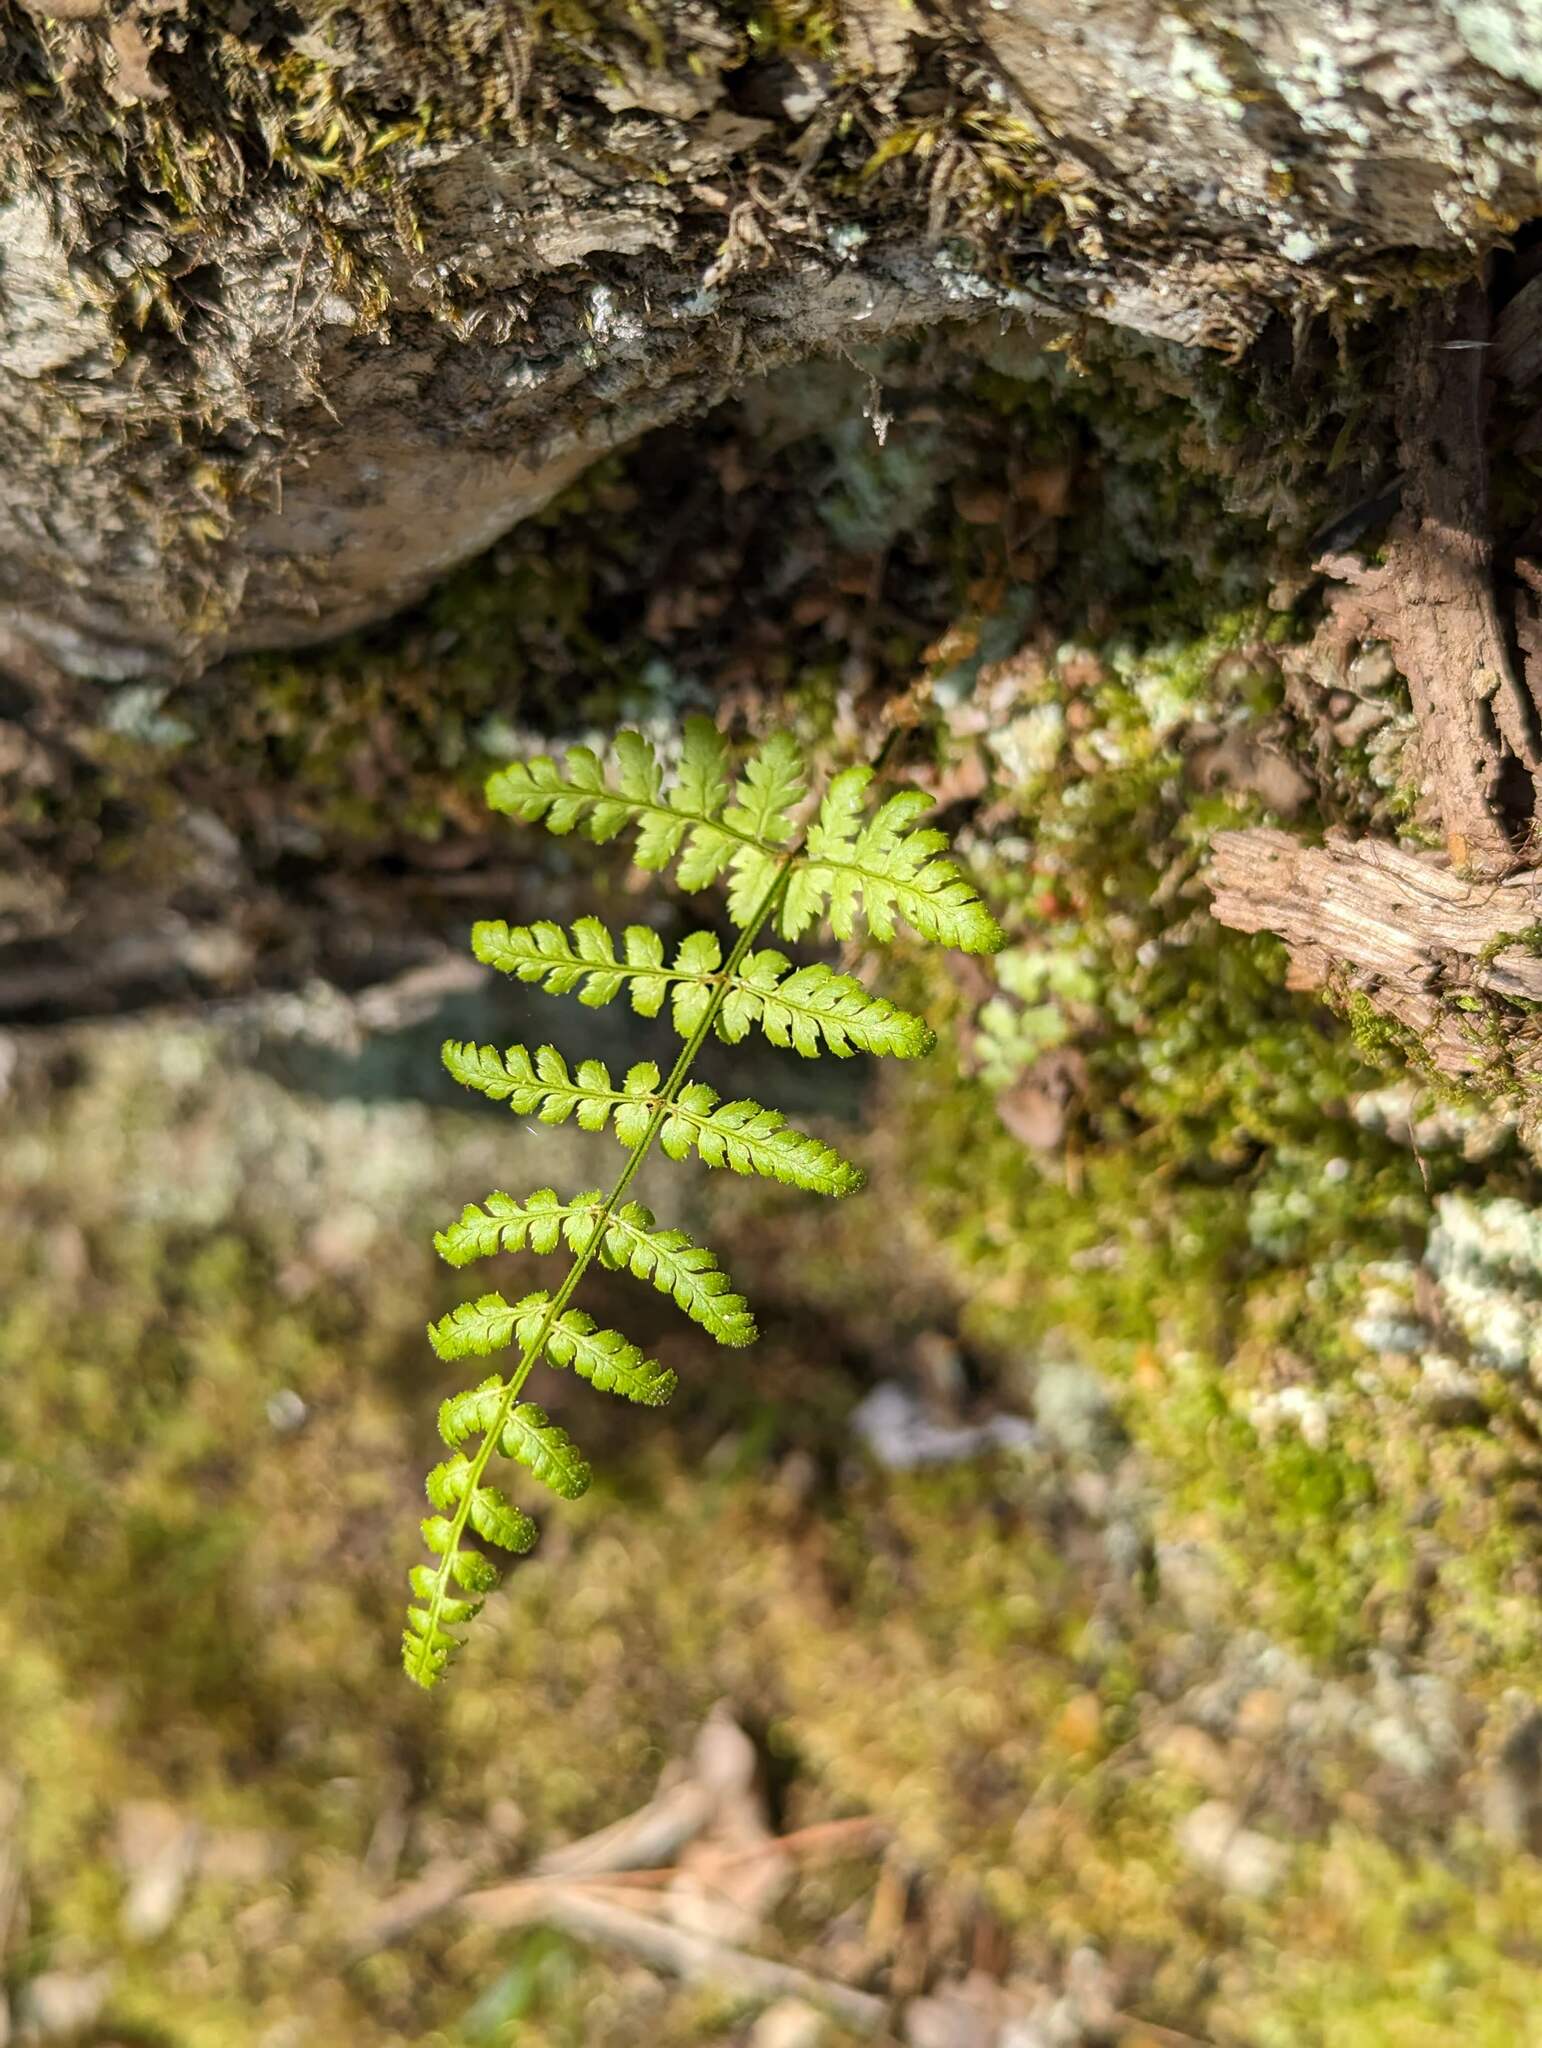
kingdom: Plantae
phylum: Tracheophyta
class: Polypodiopsida
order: Polypodiales
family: Dryopteridaceae
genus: Dryopteris
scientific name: Dryopteris intermedia
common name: Evergreen wood fern
